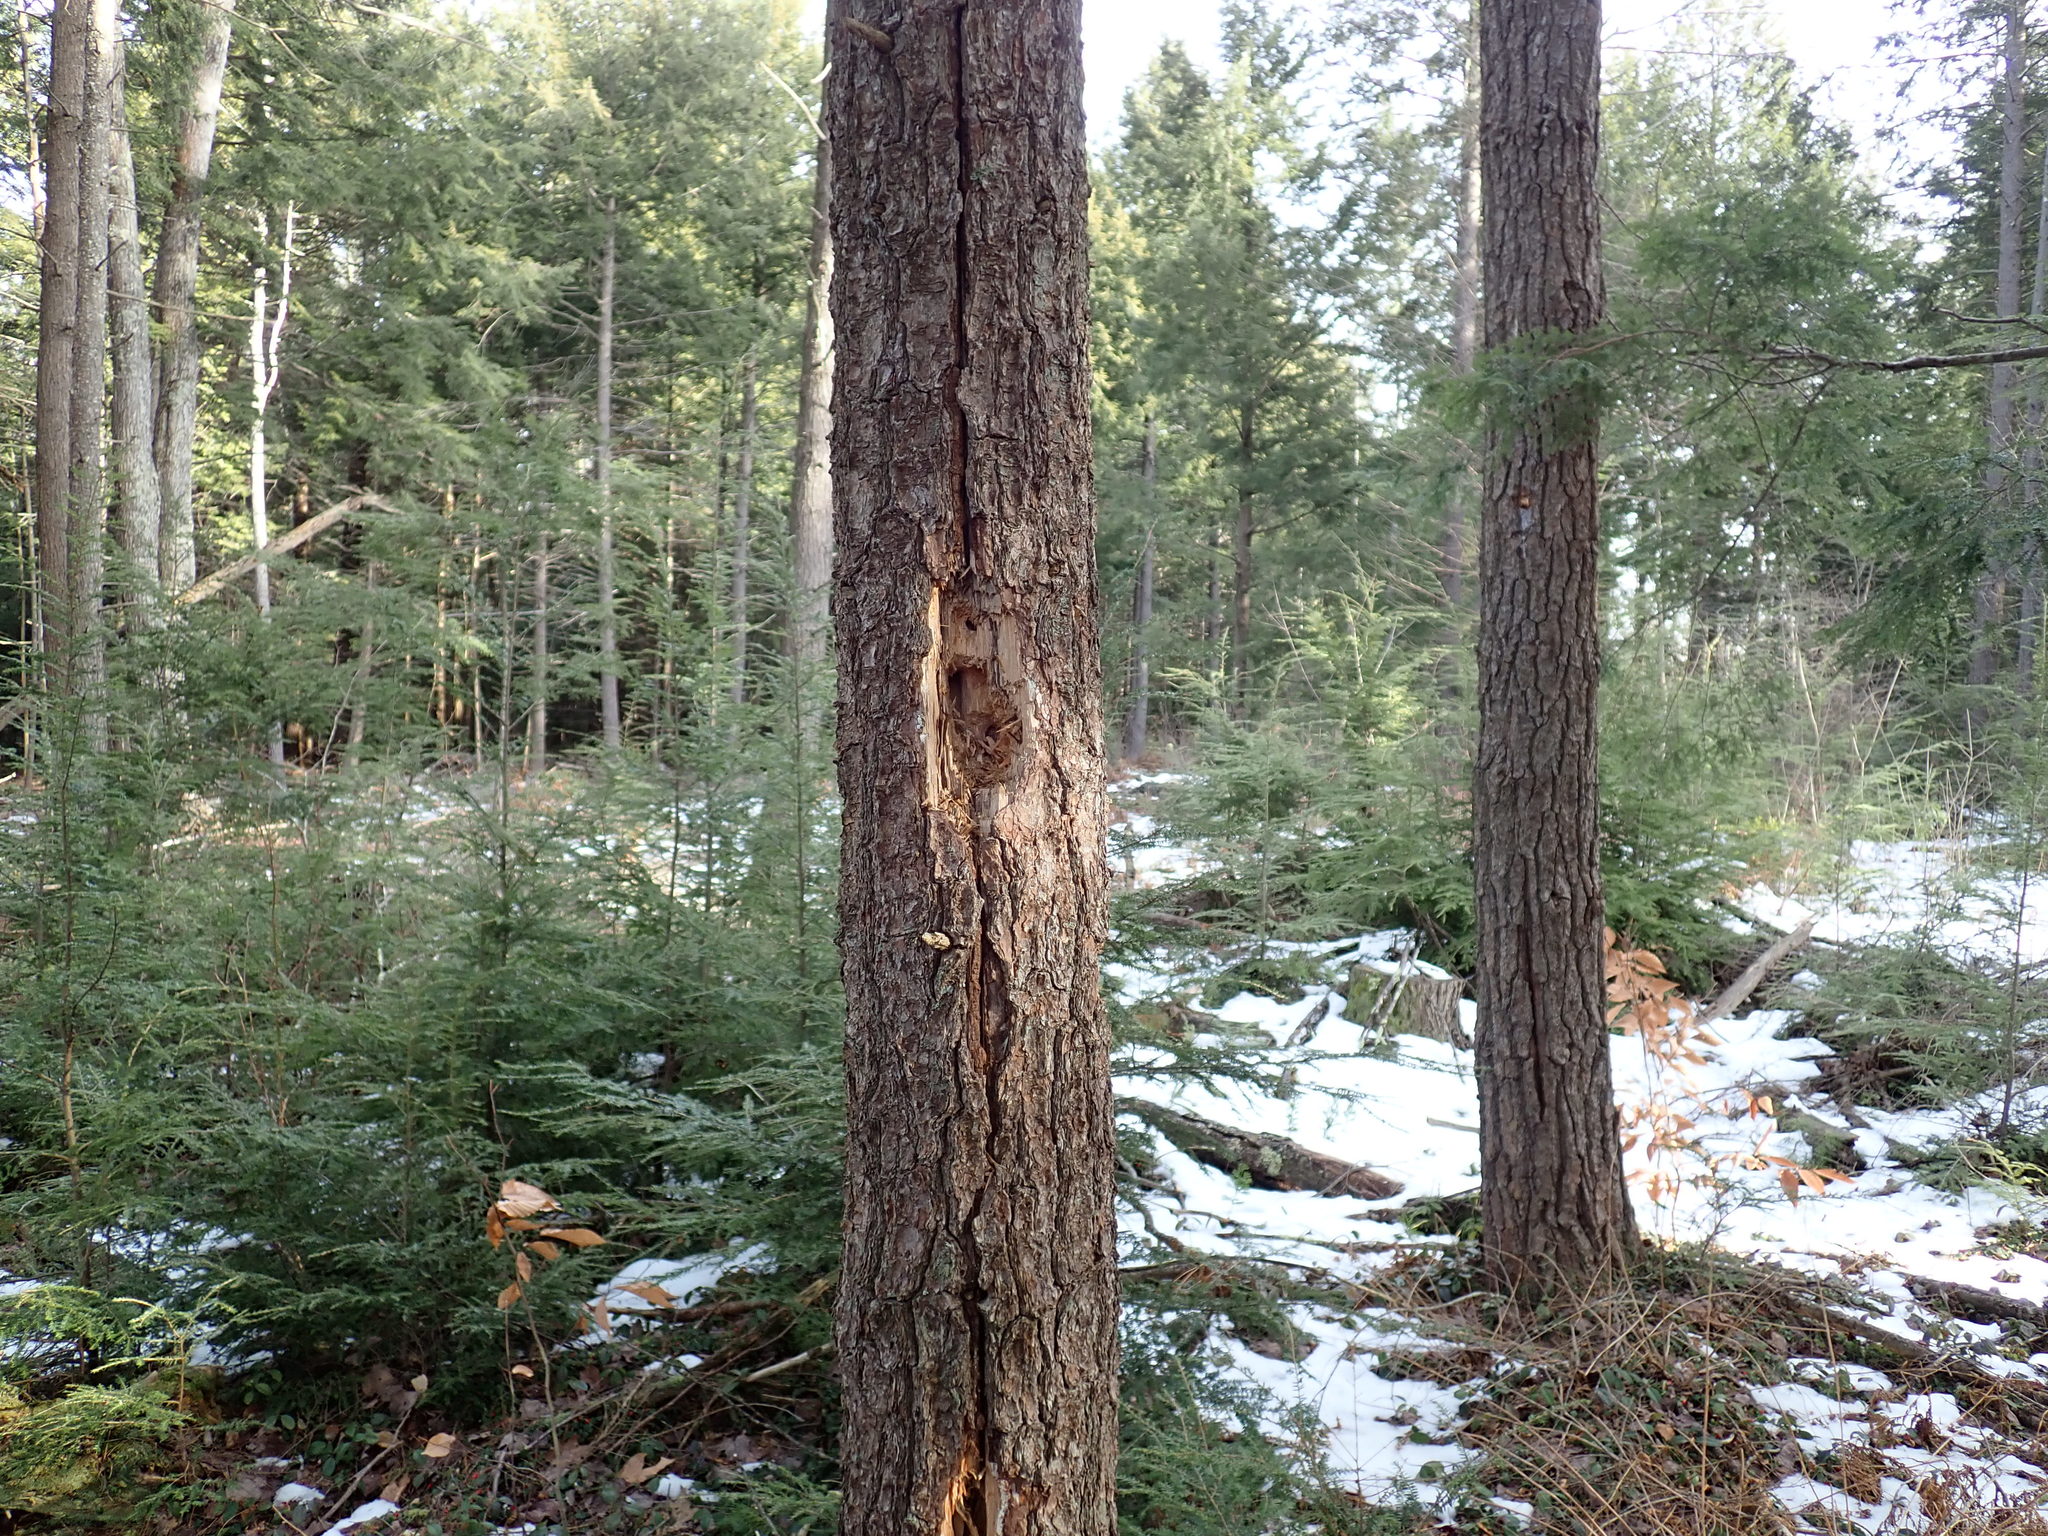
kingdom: Animalia
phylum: Chordata
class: Aves
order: Piciformes
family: Picidae
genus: Dryocopus
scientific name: Dryocopus pileatus
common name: Pileated woodpecker
